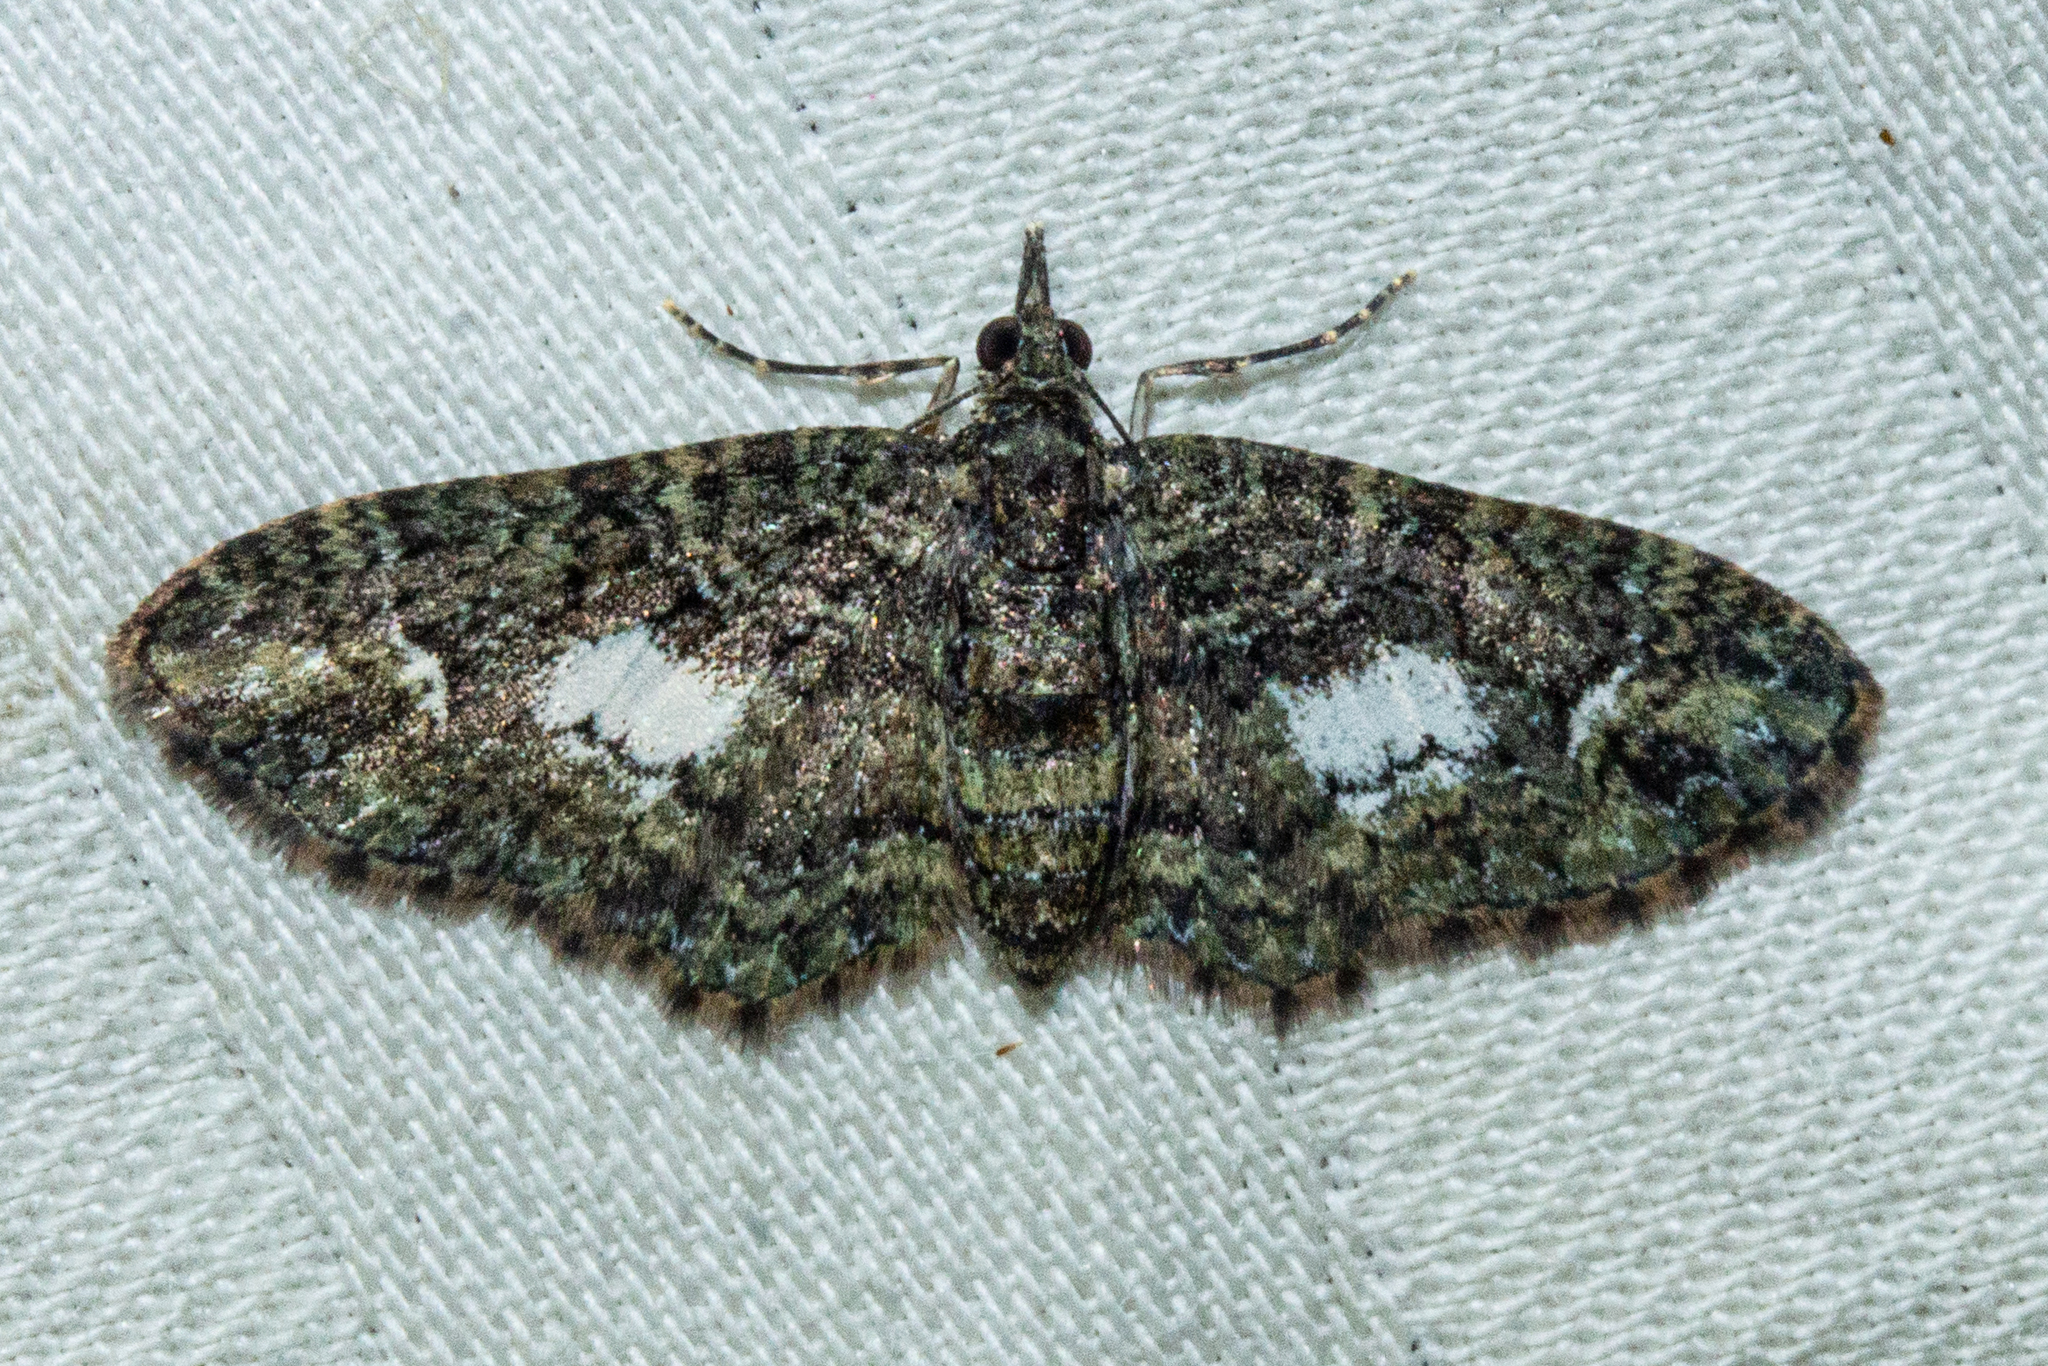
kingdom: Animalia
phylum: Arthropoda
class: Insecta
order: Lepidoptera
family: Geometridae
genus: Pasiphilodes
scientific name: Pasiphilodes testulata
